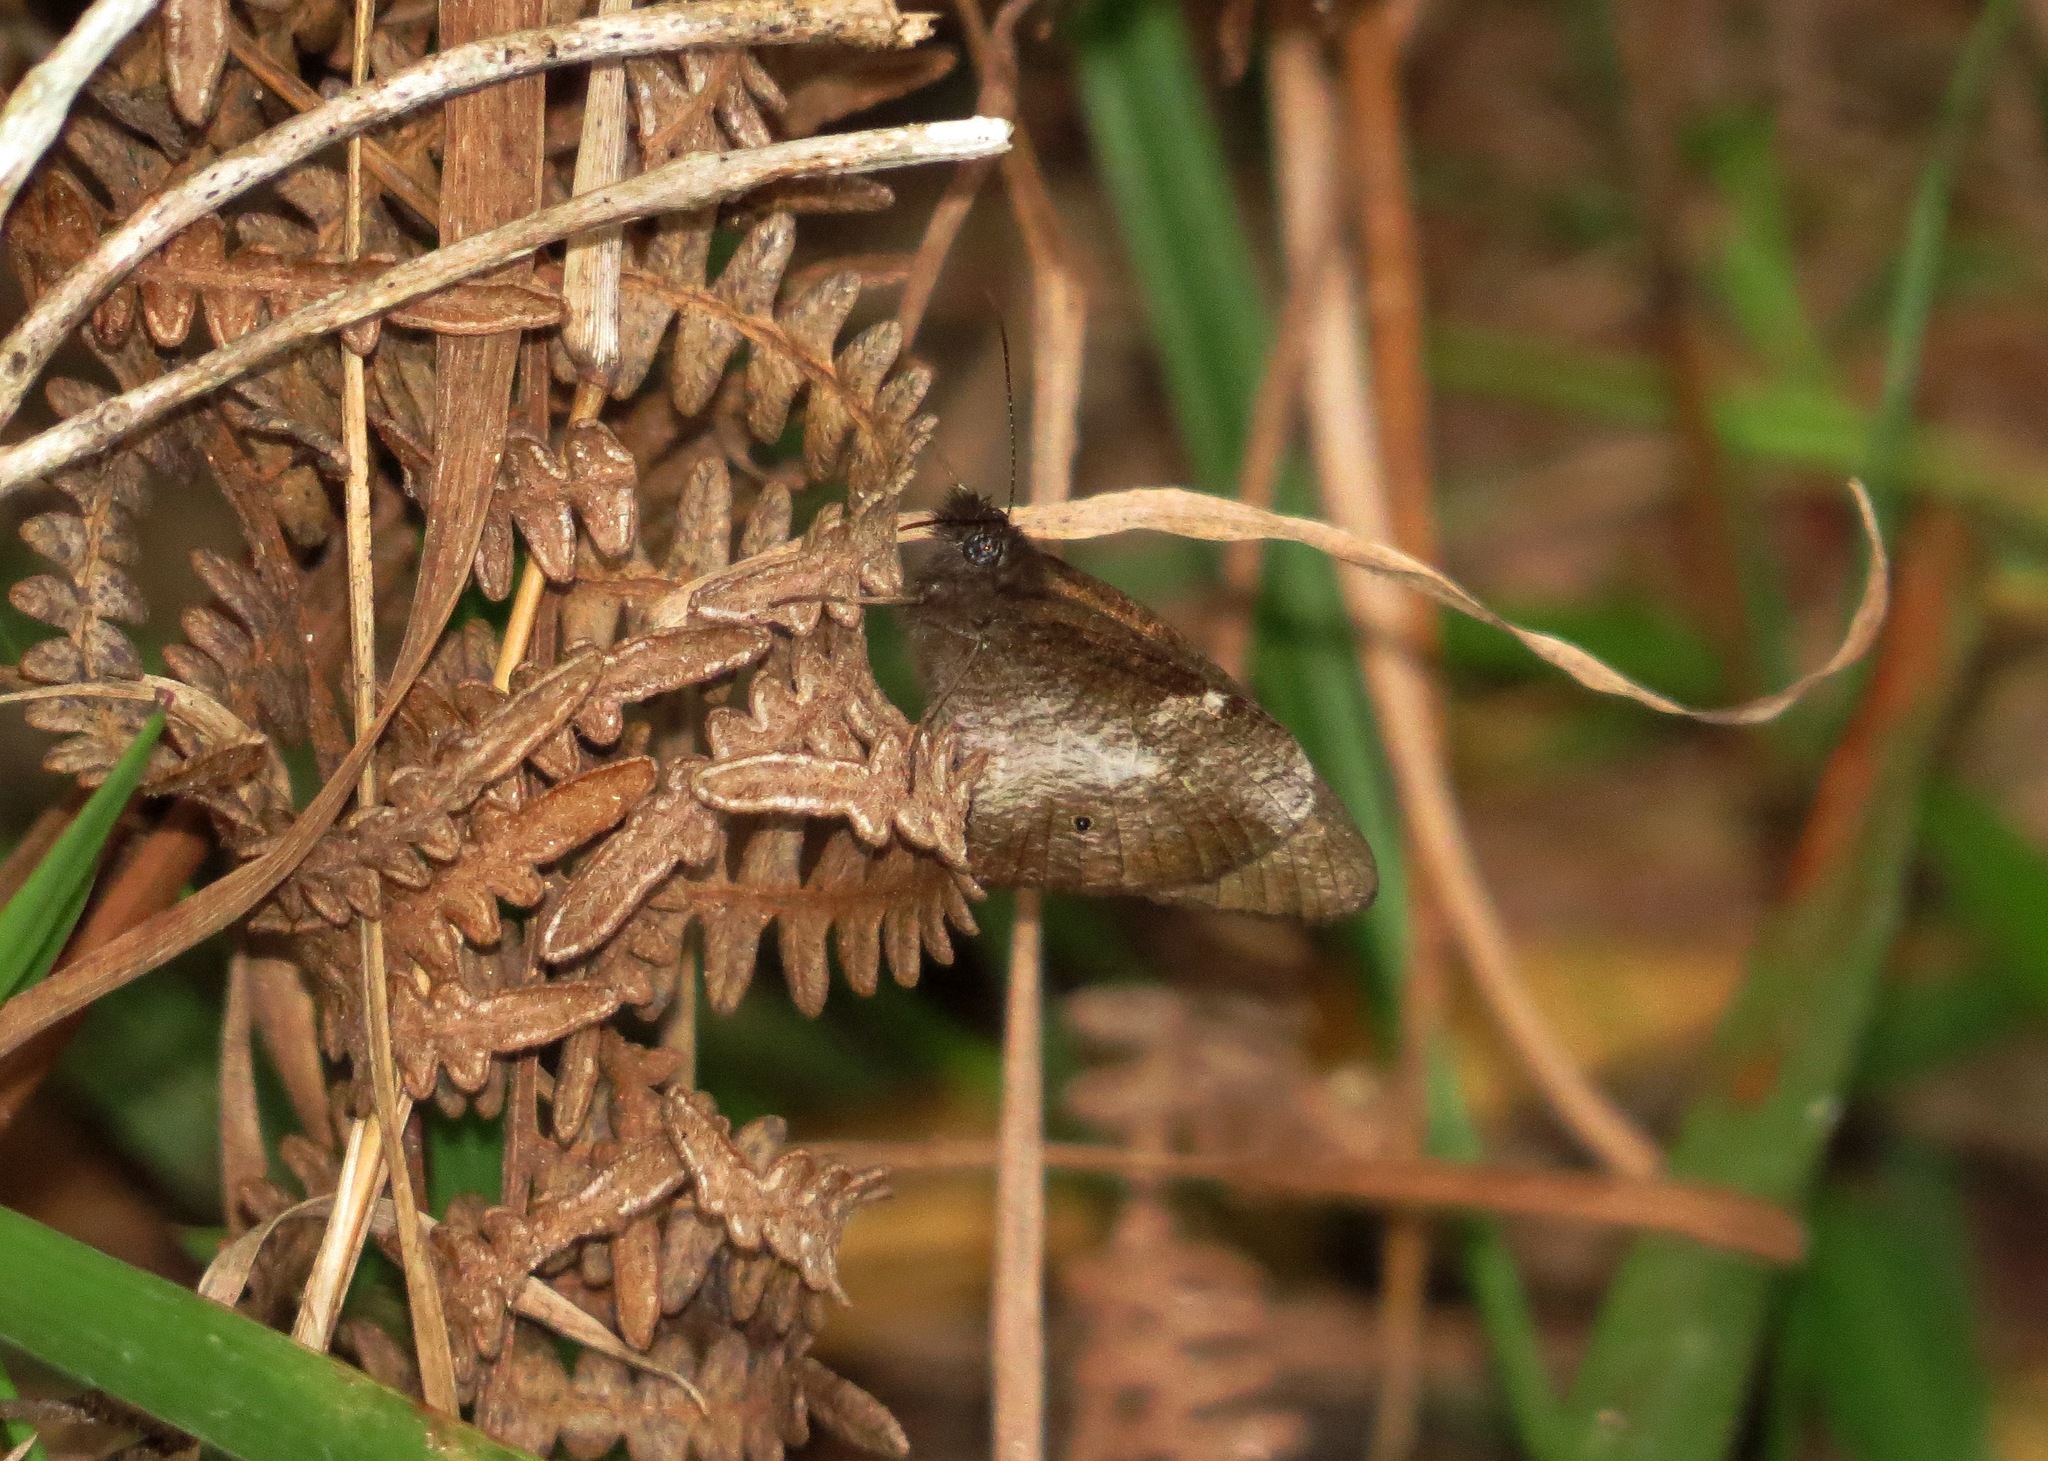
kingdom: Animalia
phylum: Arthropoda
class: Insecta
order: Lepidoptera
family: Nymphalidae
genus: Ypthima
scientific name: Ypthima
